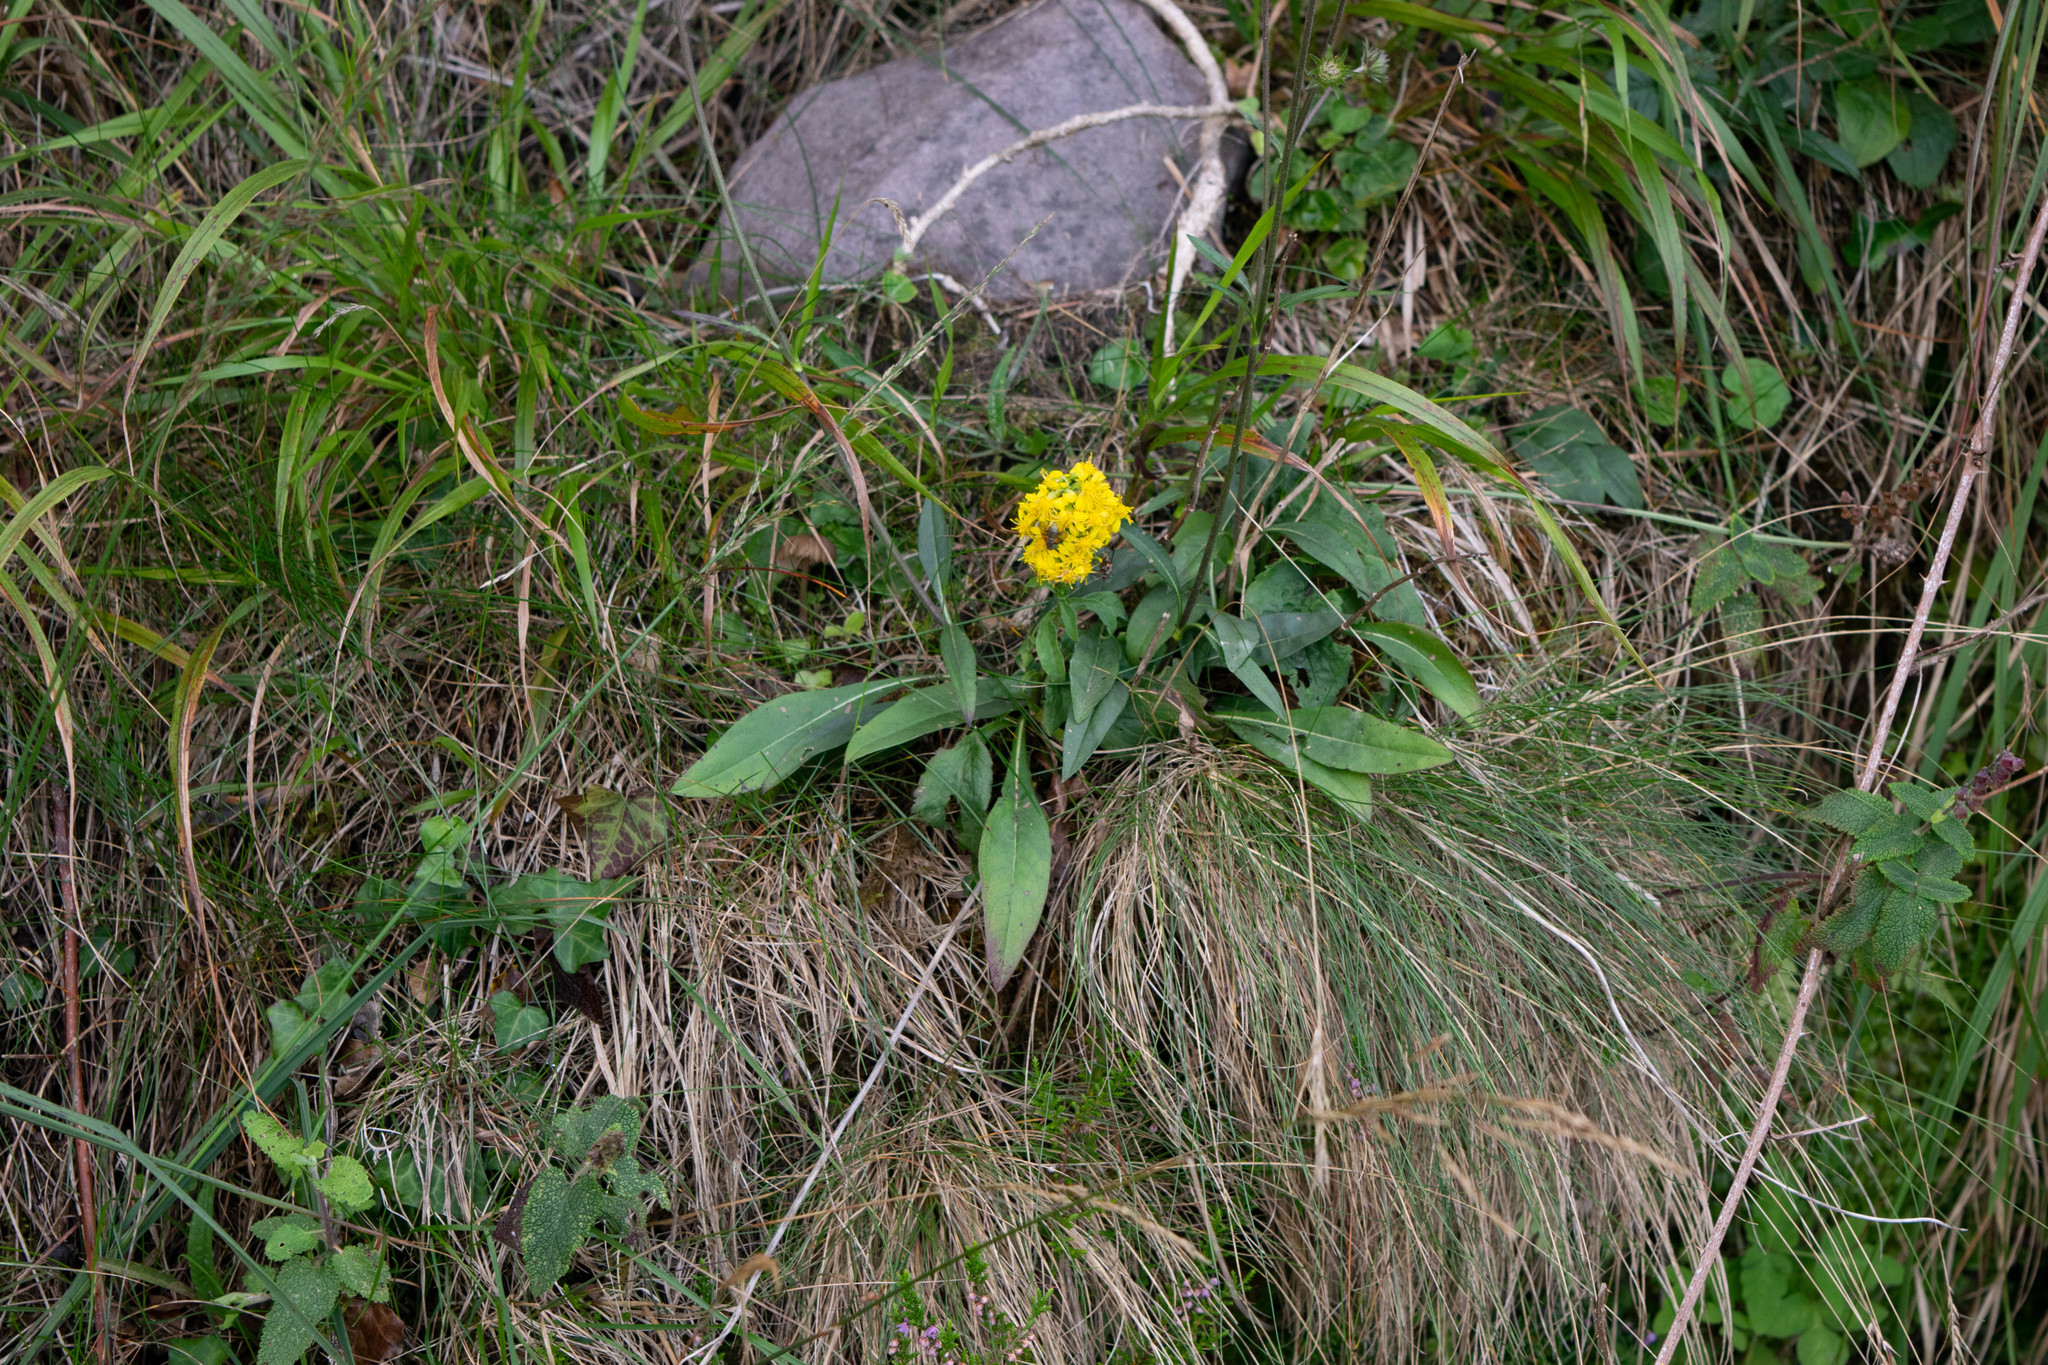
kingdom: Plantae
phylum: Tracheophyta
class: Magnoliopsida
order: Asterales
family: Asteraceae
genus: Solidago
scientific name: Solidago virgaurea
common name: Goldenrod
